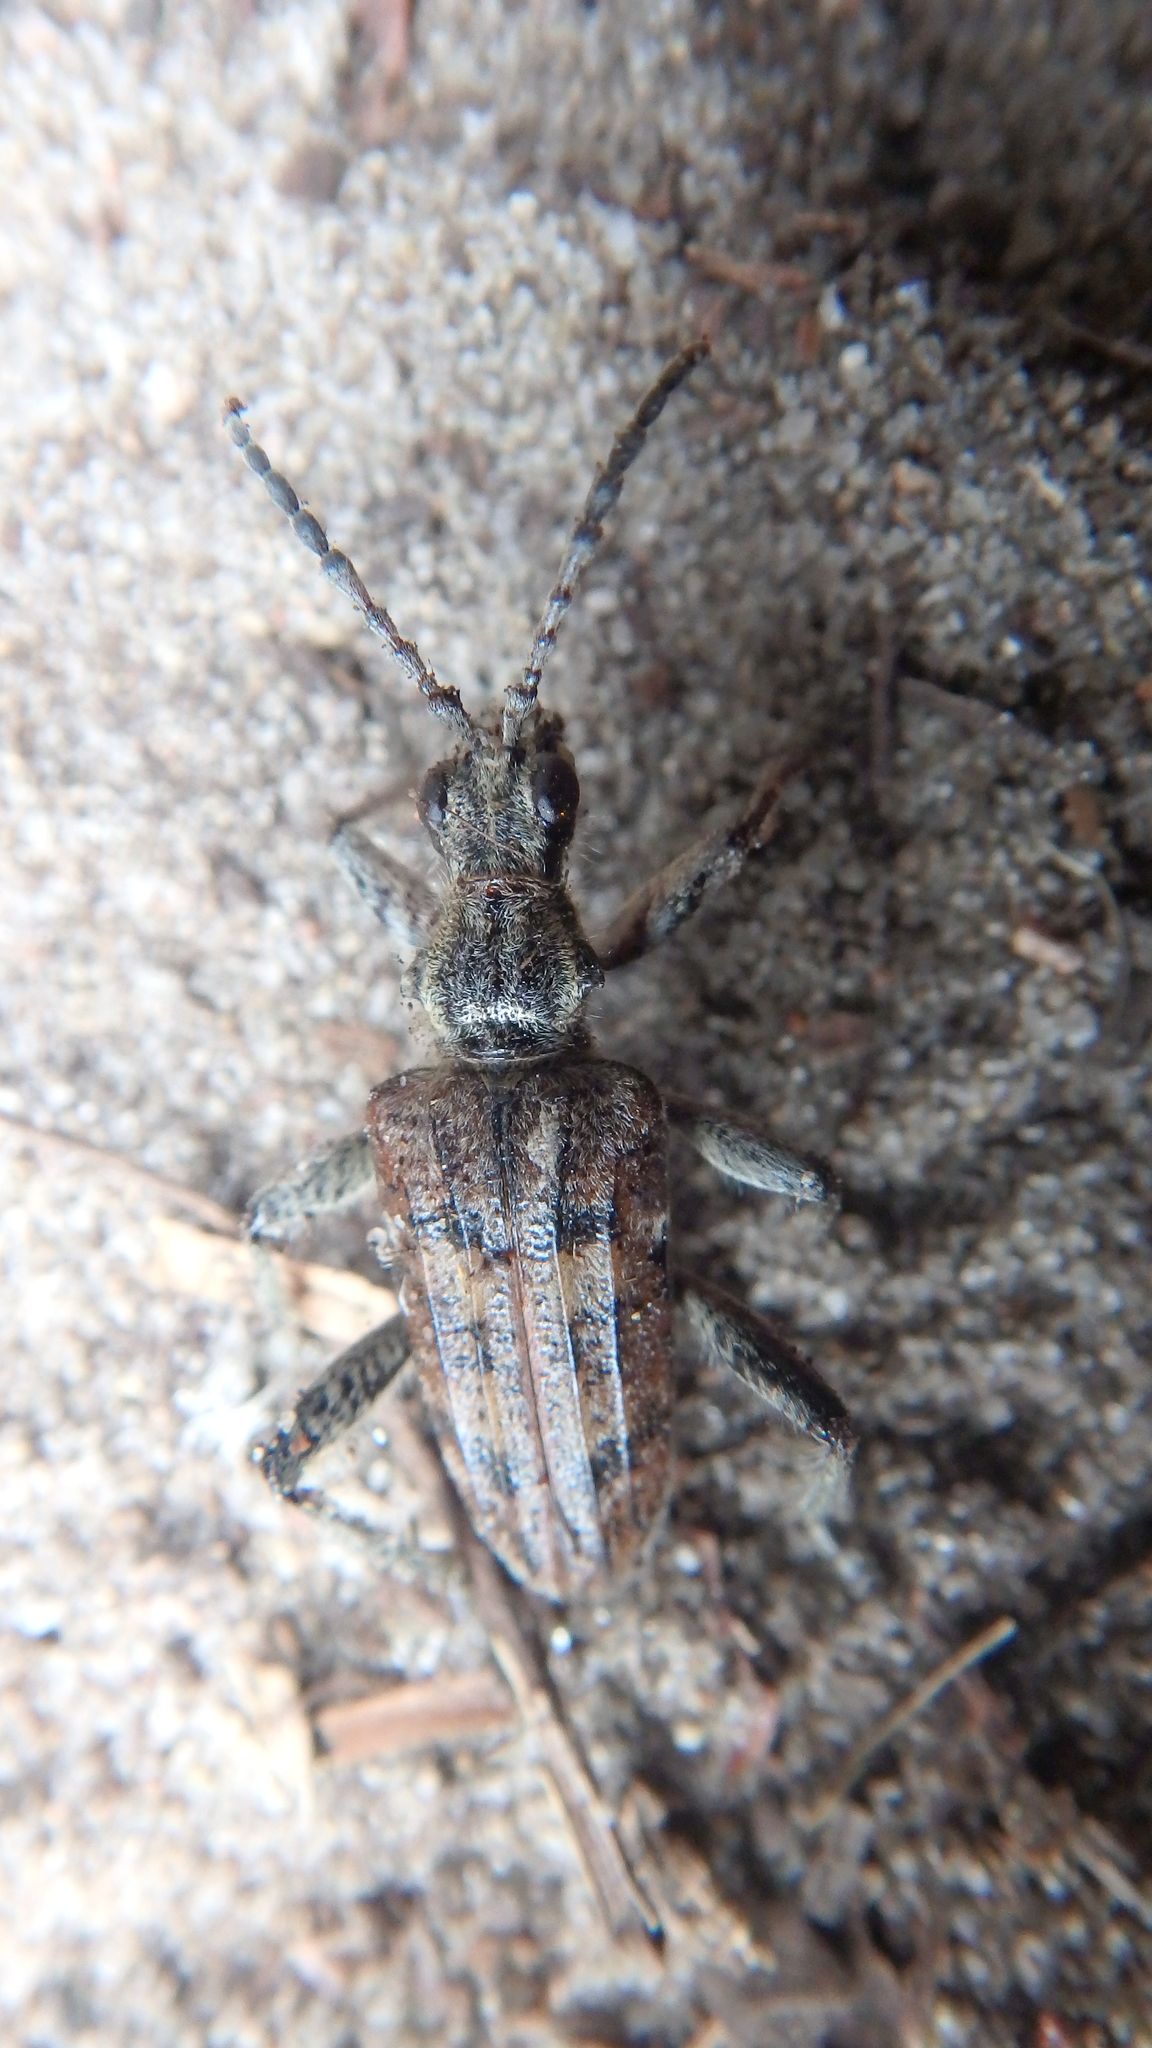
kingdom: Animalia
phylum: Arthropoda
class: Insecta
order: Coleoptera
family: Cerambycidae
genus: Rhagium
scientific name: Rhagium inquisitor
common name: Ribbed pine borer
